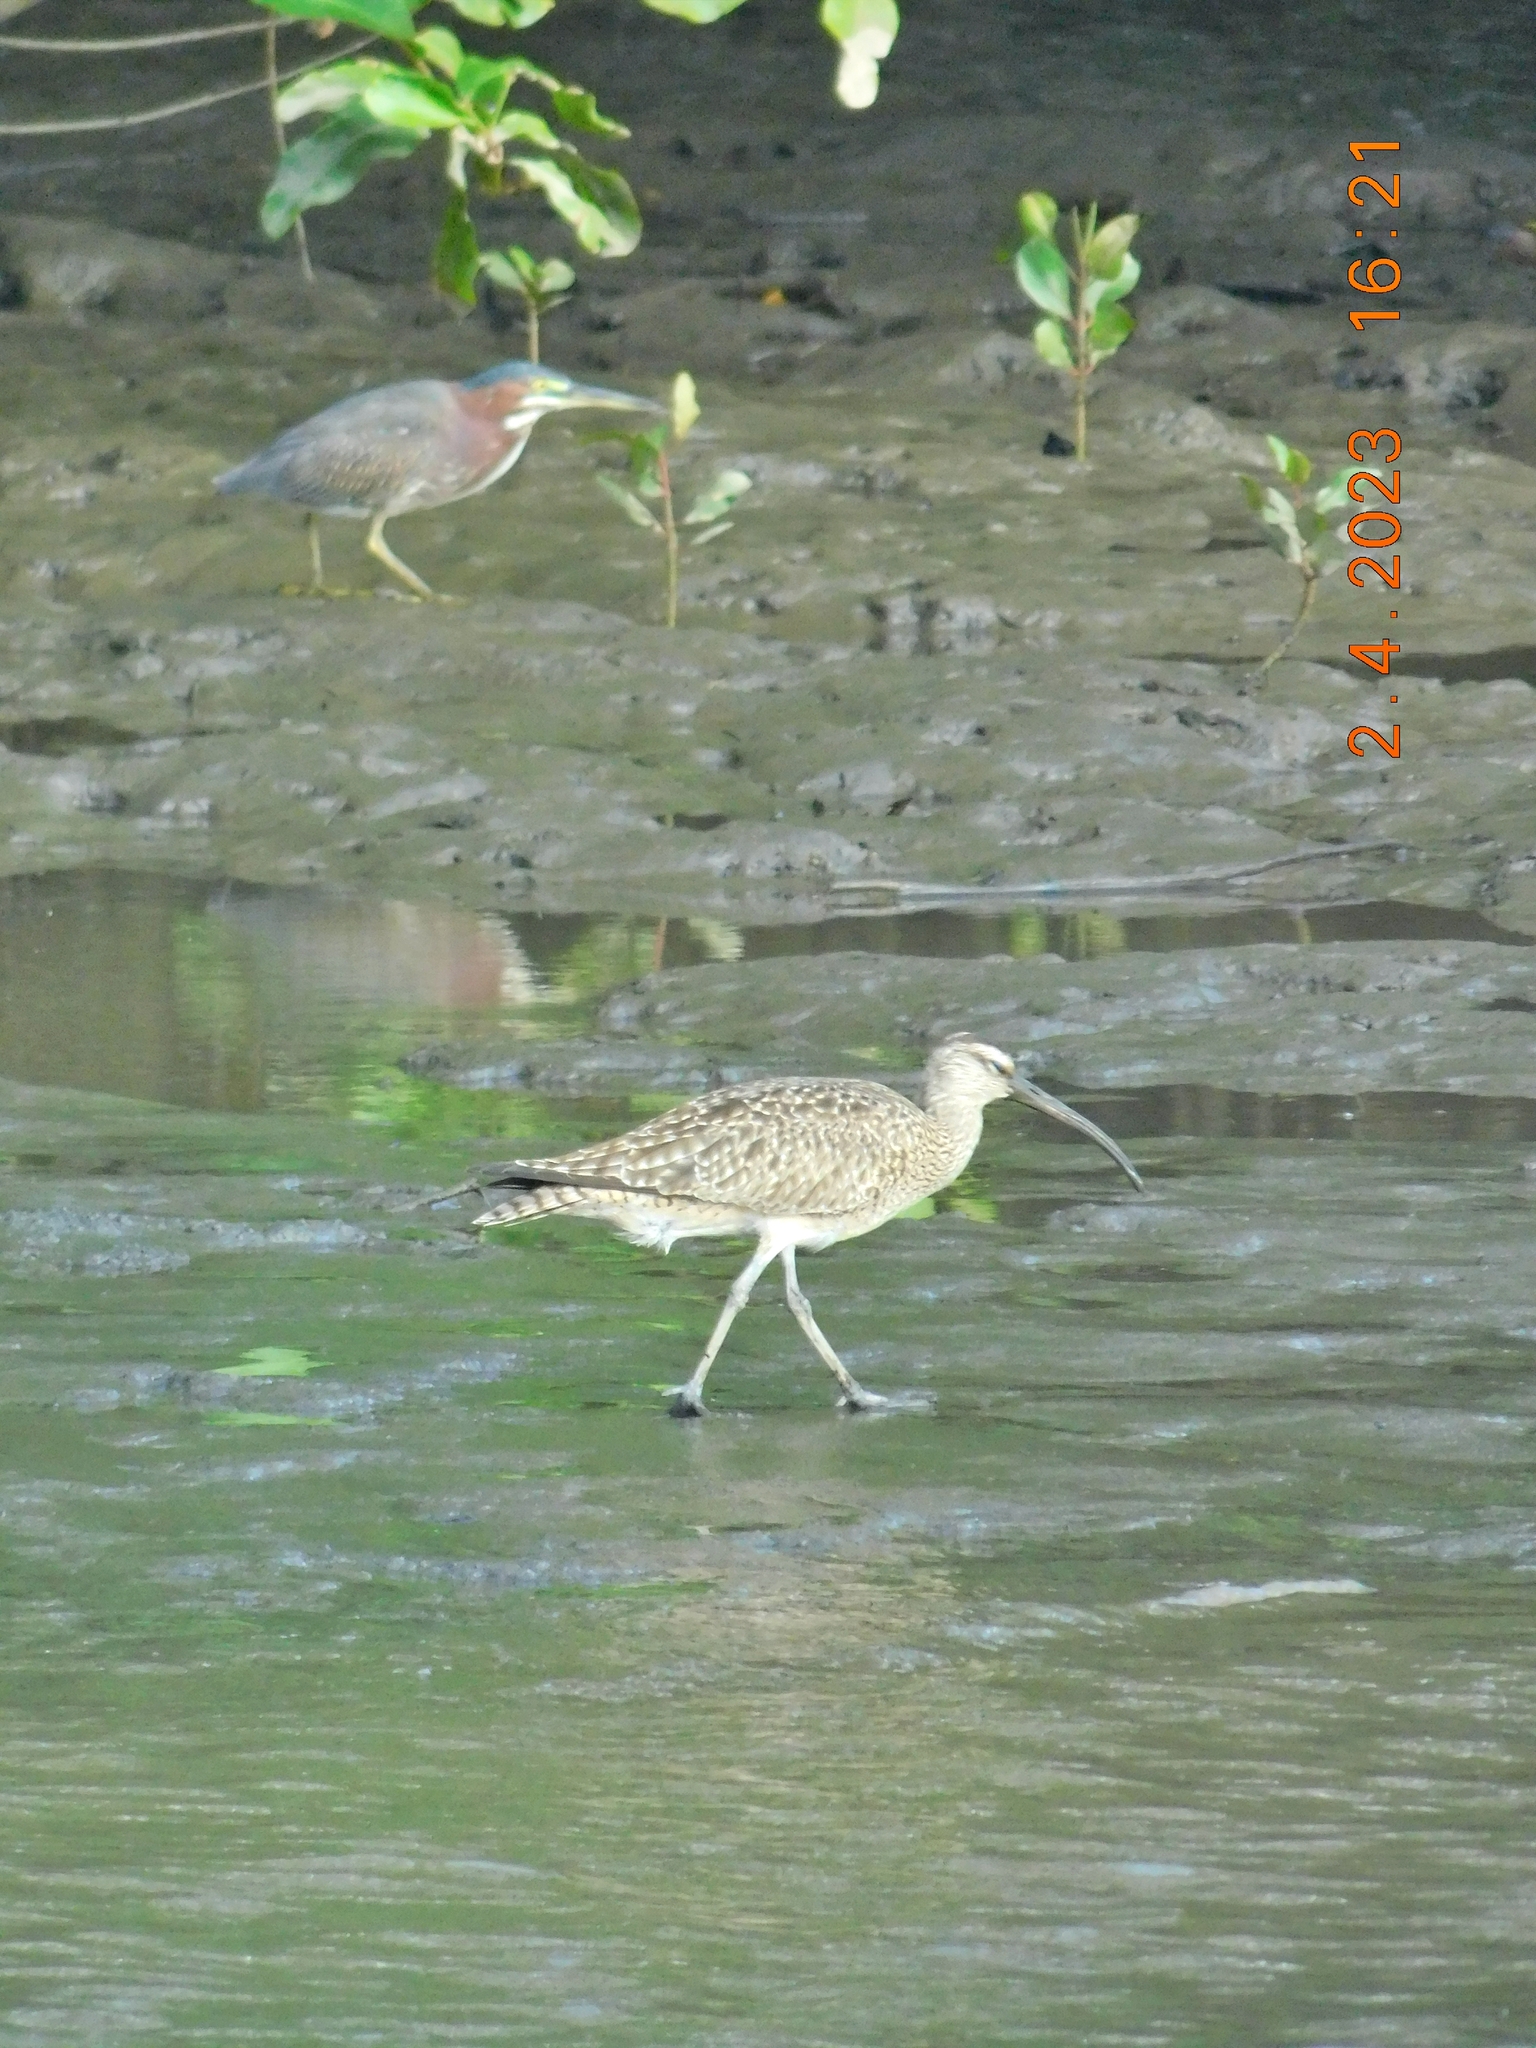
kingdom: Animalia
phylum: Chordata
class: Aves
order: Charadriiformes
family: Scolopacidae
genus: Numenius
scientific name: Numenius phaeopus
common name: Whimbrel
